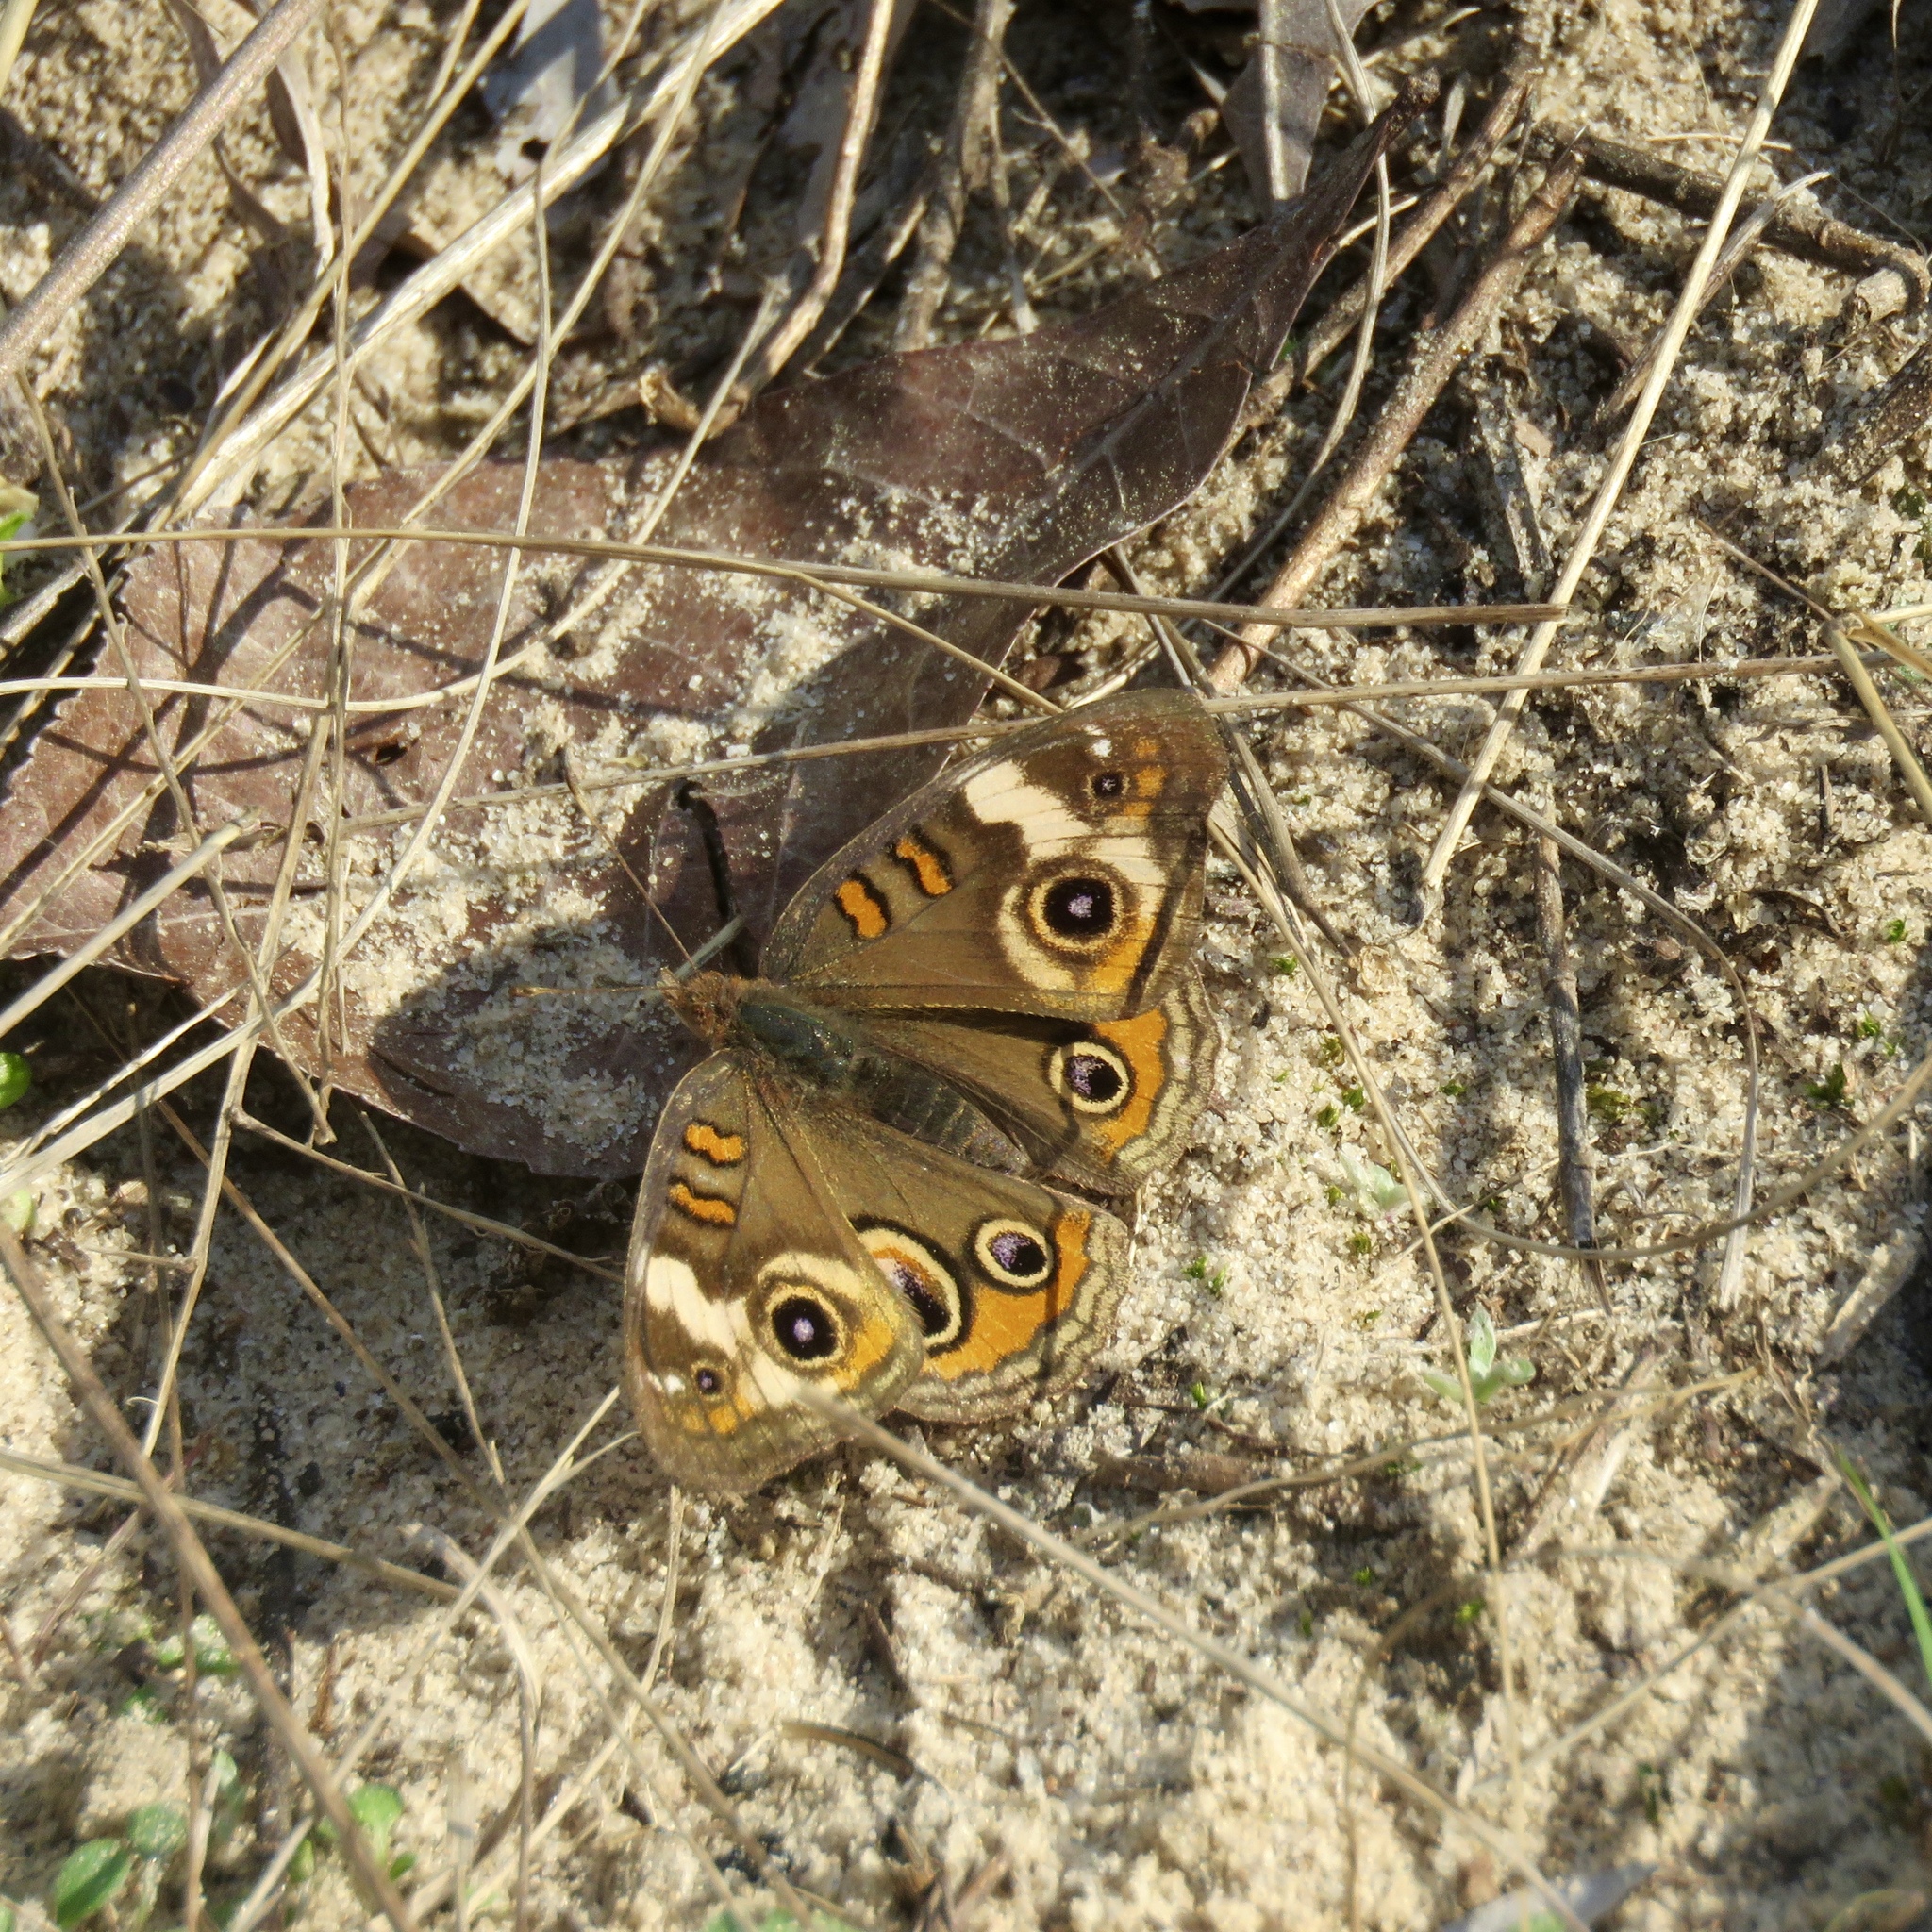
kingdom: Animalia
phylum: Arthropoda
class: Insecta
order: Lepidoptera
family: Nymphalidae
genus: Junonia
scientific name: Junonia coenia
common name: Common buckeye
